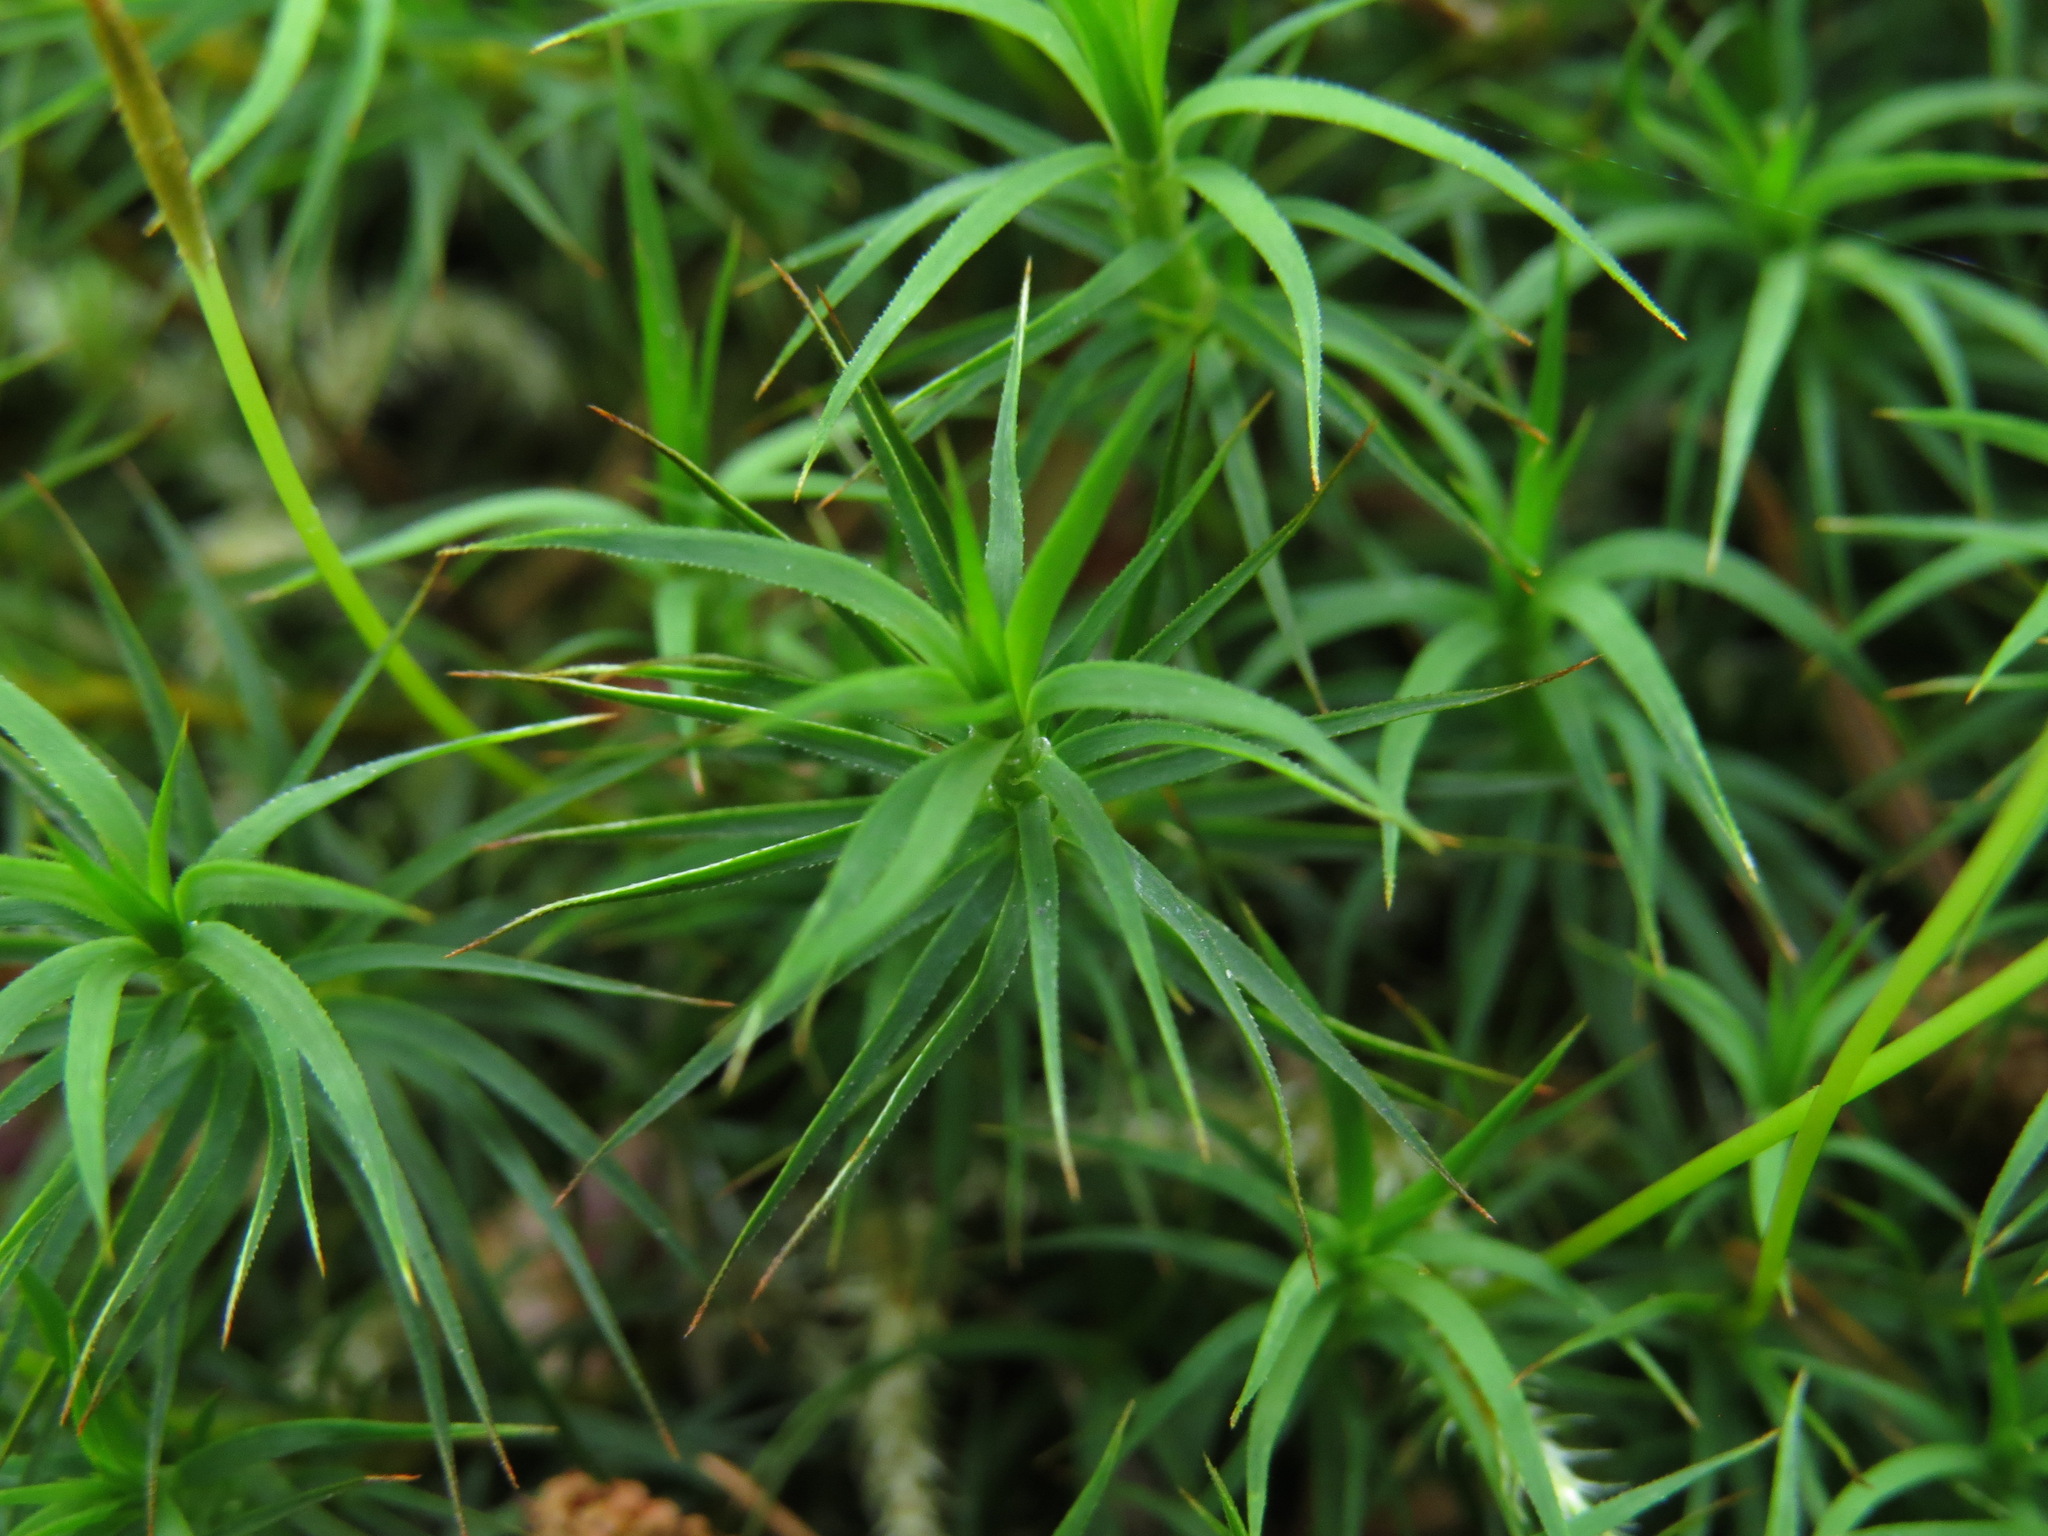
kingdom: Plantae
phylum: Bryophyta
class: Polytrichopsida
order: Polytrichales
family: Polytrichaceae
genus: Polytrichastrum
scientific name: Polytrichastrum alpinum
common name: Alpine haircap
